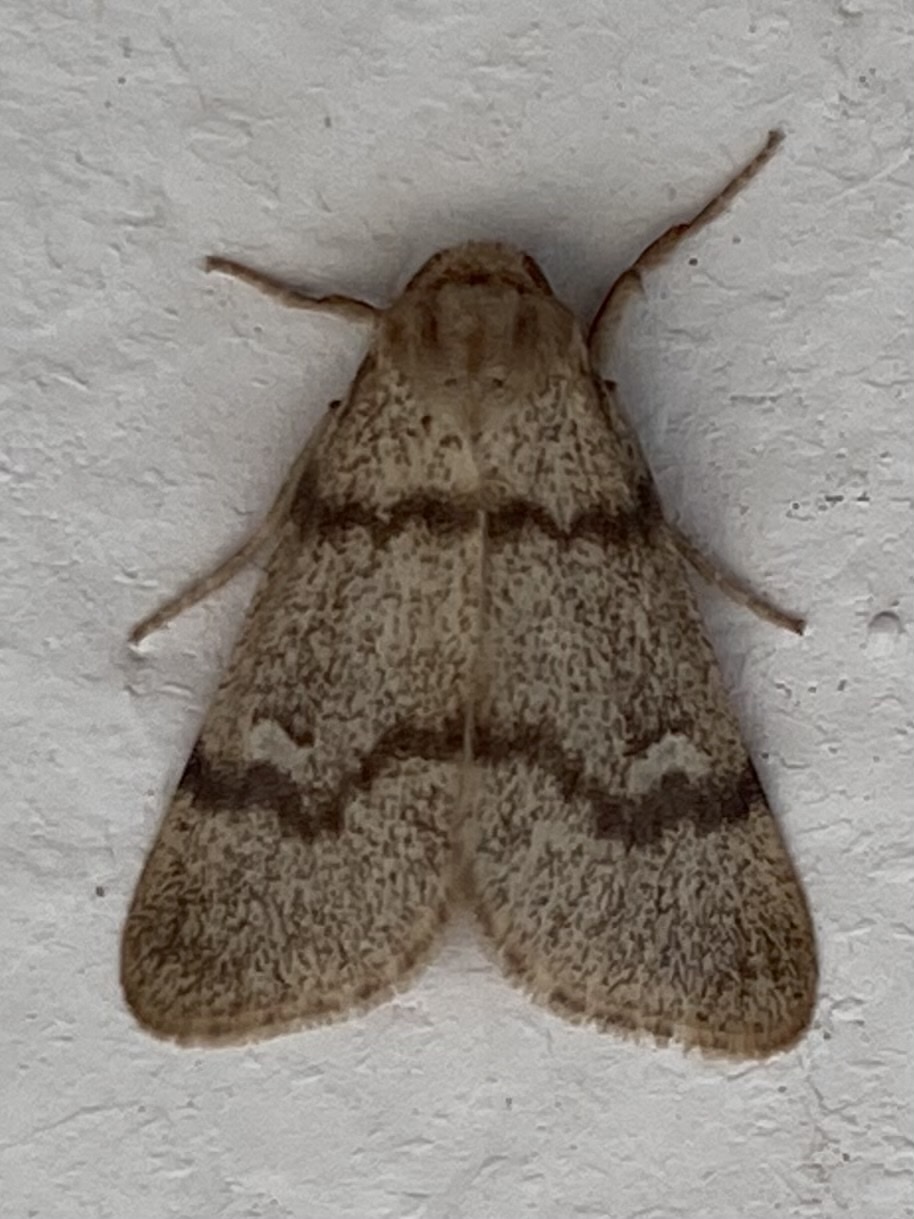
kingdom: Animalia
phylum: Arthropoda
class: Insecta
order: Lepidoptera
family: Noctuidae
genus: Narthecophora
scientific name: Narthecophora pulverea
